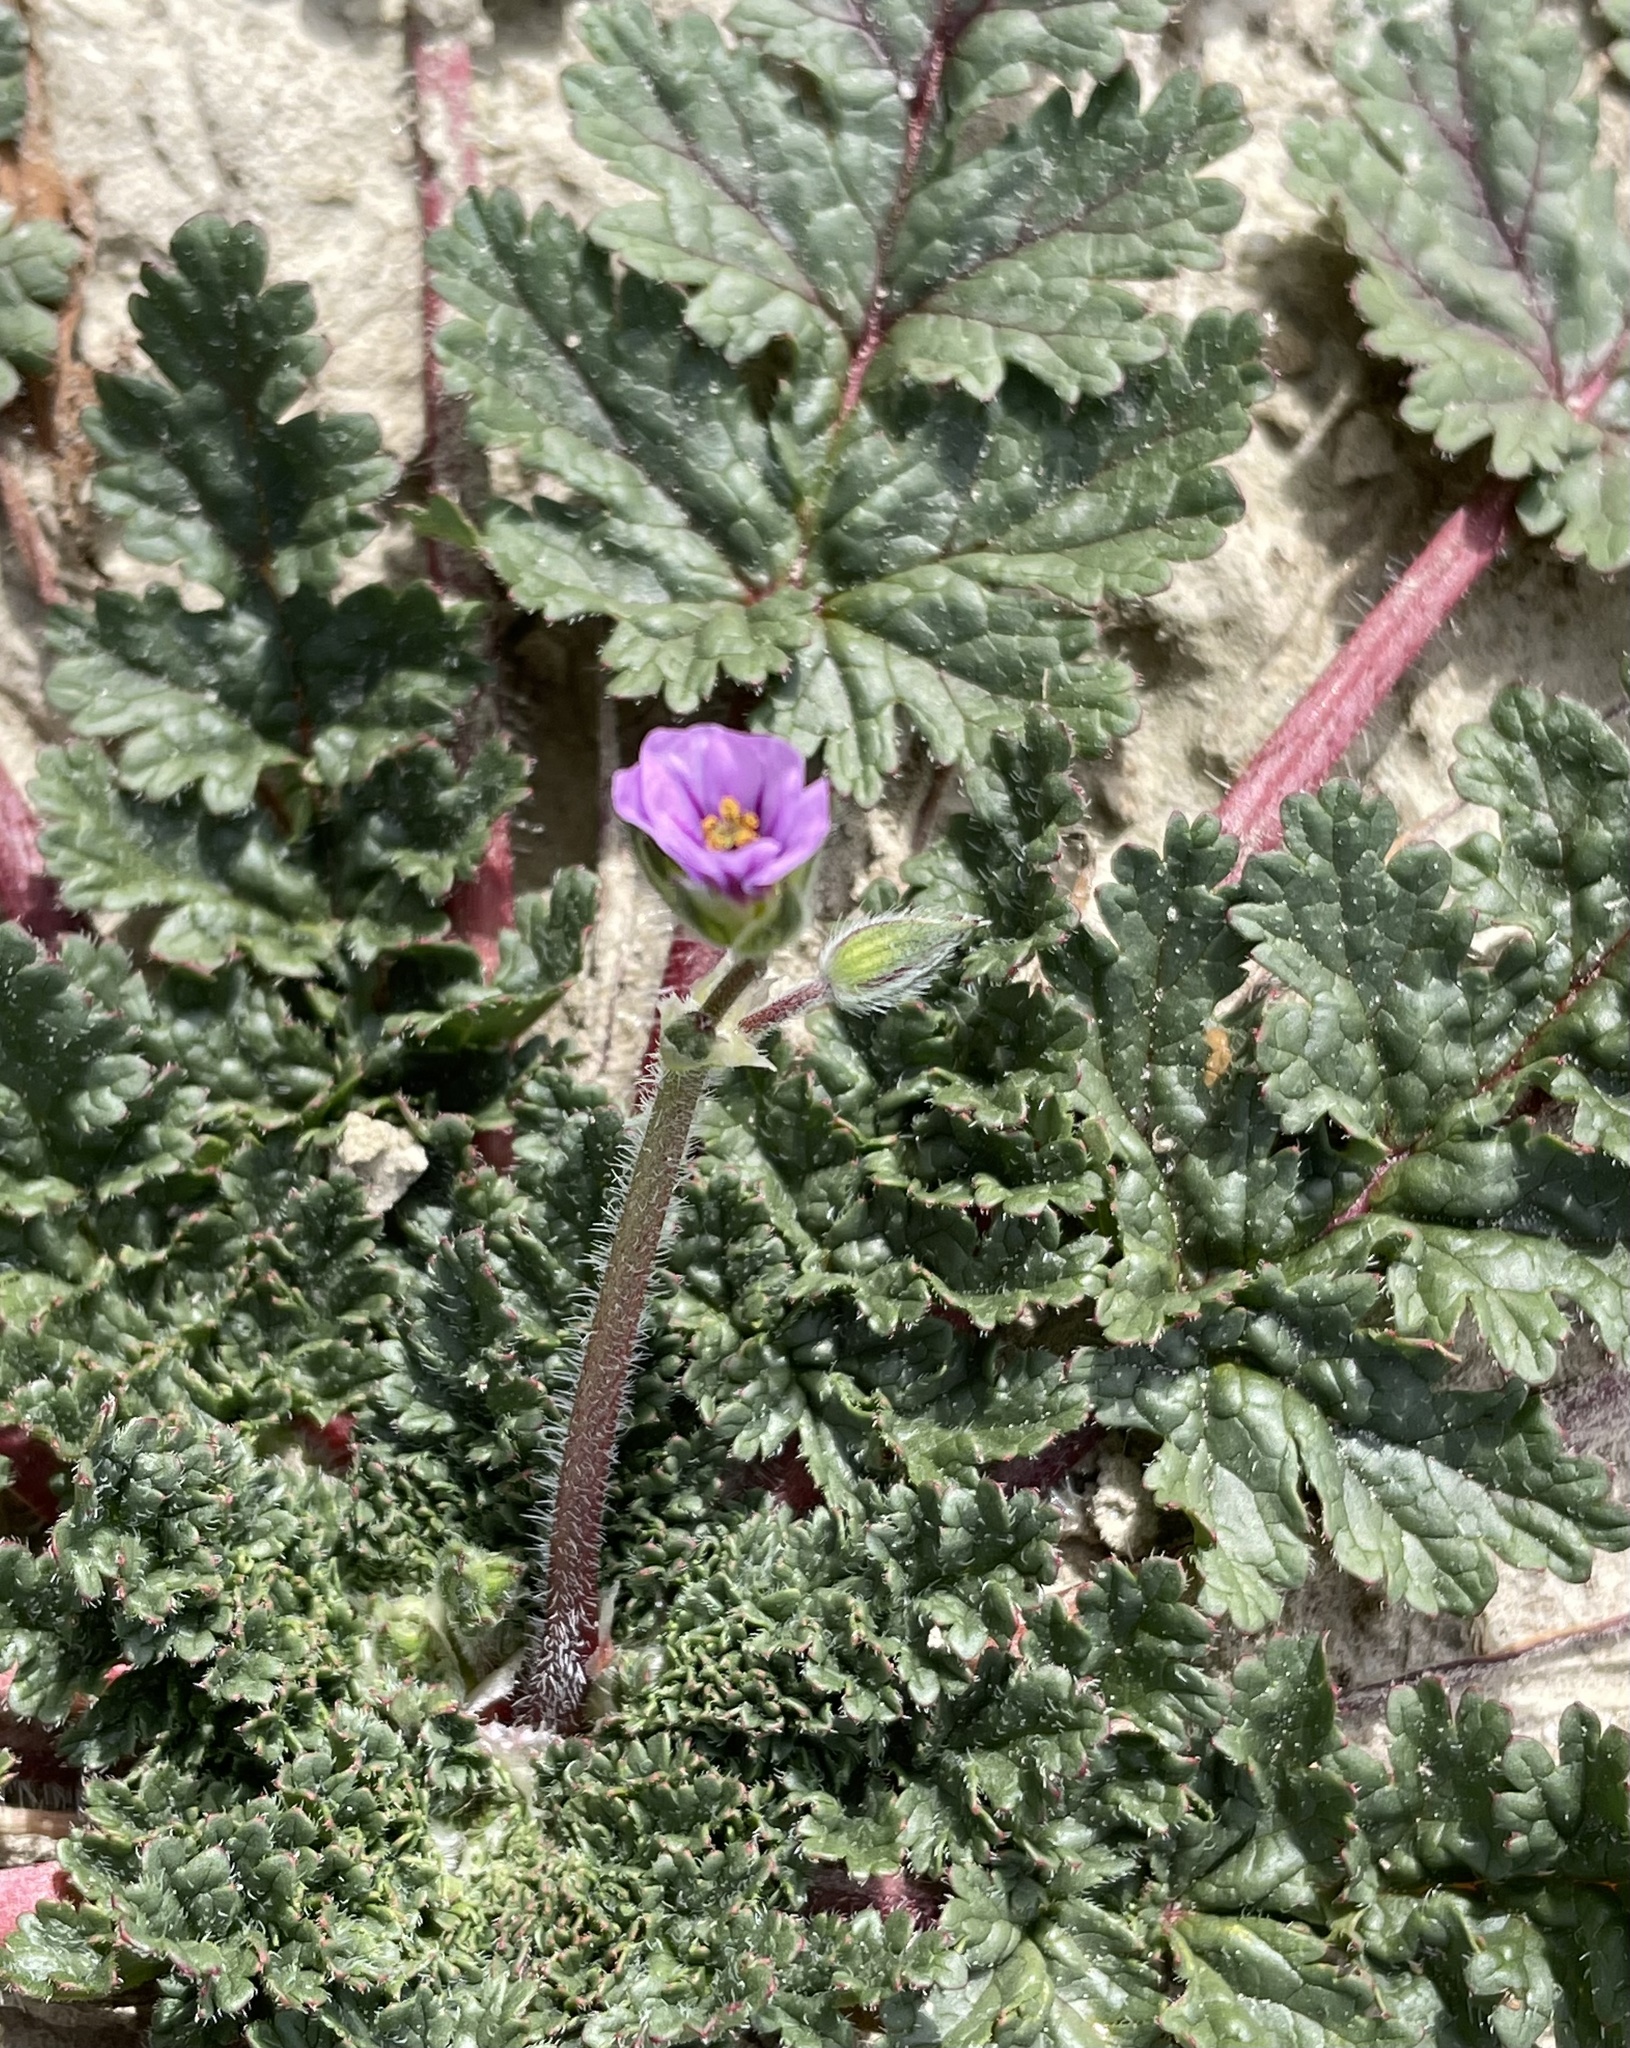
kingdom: Plantae
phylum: Tracheophyta
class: Magnoliopsida
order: Geraniales
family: Geraniaceae
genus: Erodium
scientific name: Erodium botrys
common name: Mediterranean stork's-bill
